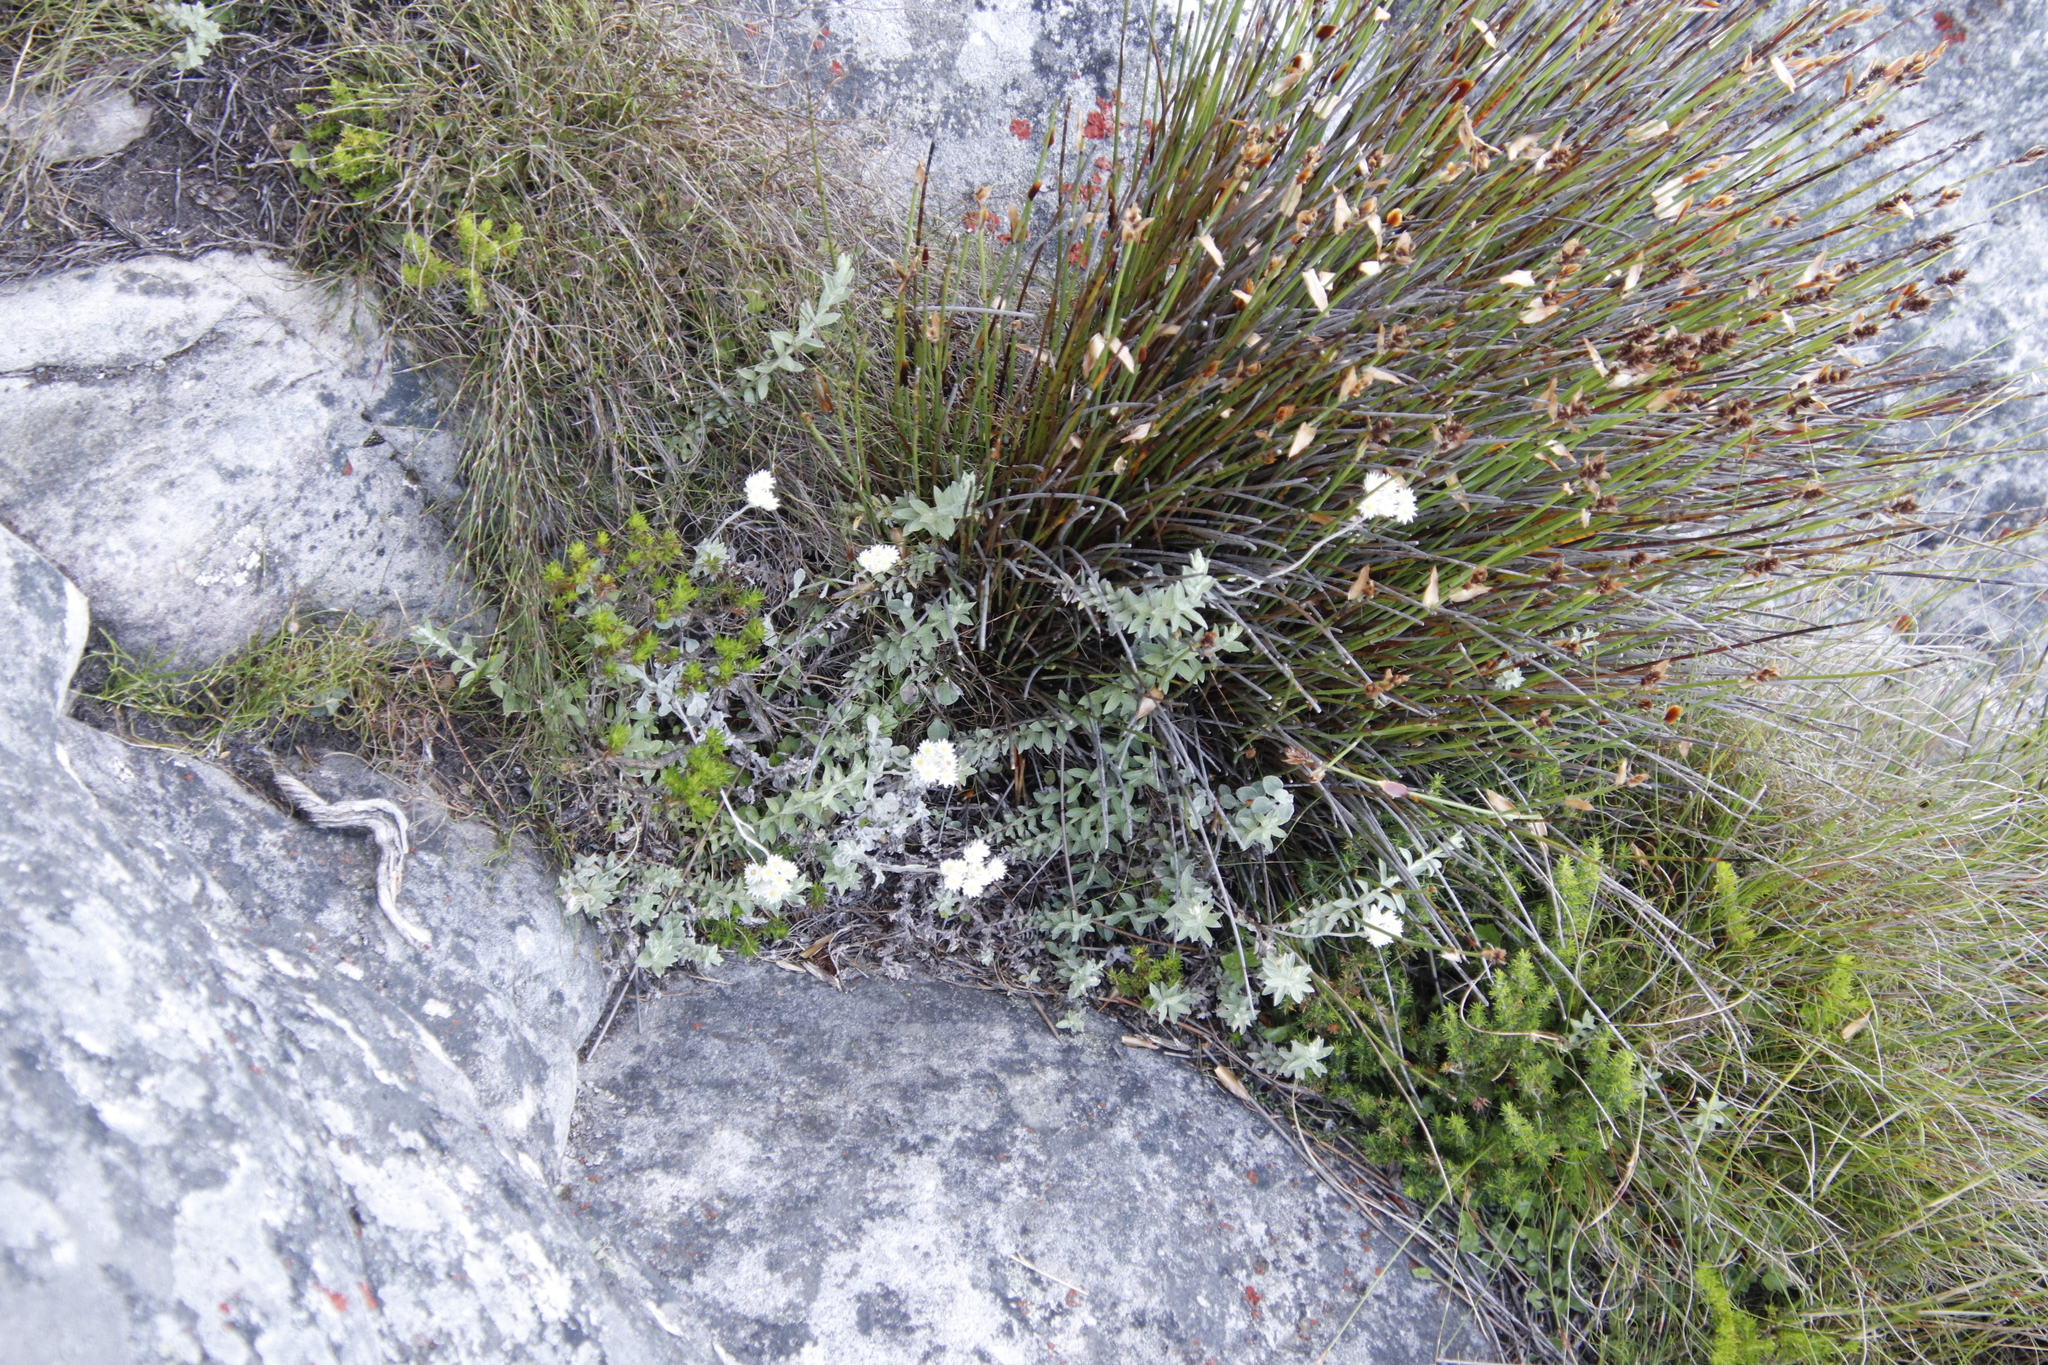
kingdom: Plantae
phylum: Tracheophyta
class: Magnoliopsida
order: Asterales
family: Asteraceae
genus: Anaxeton
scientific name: Anaxeton arborescens
